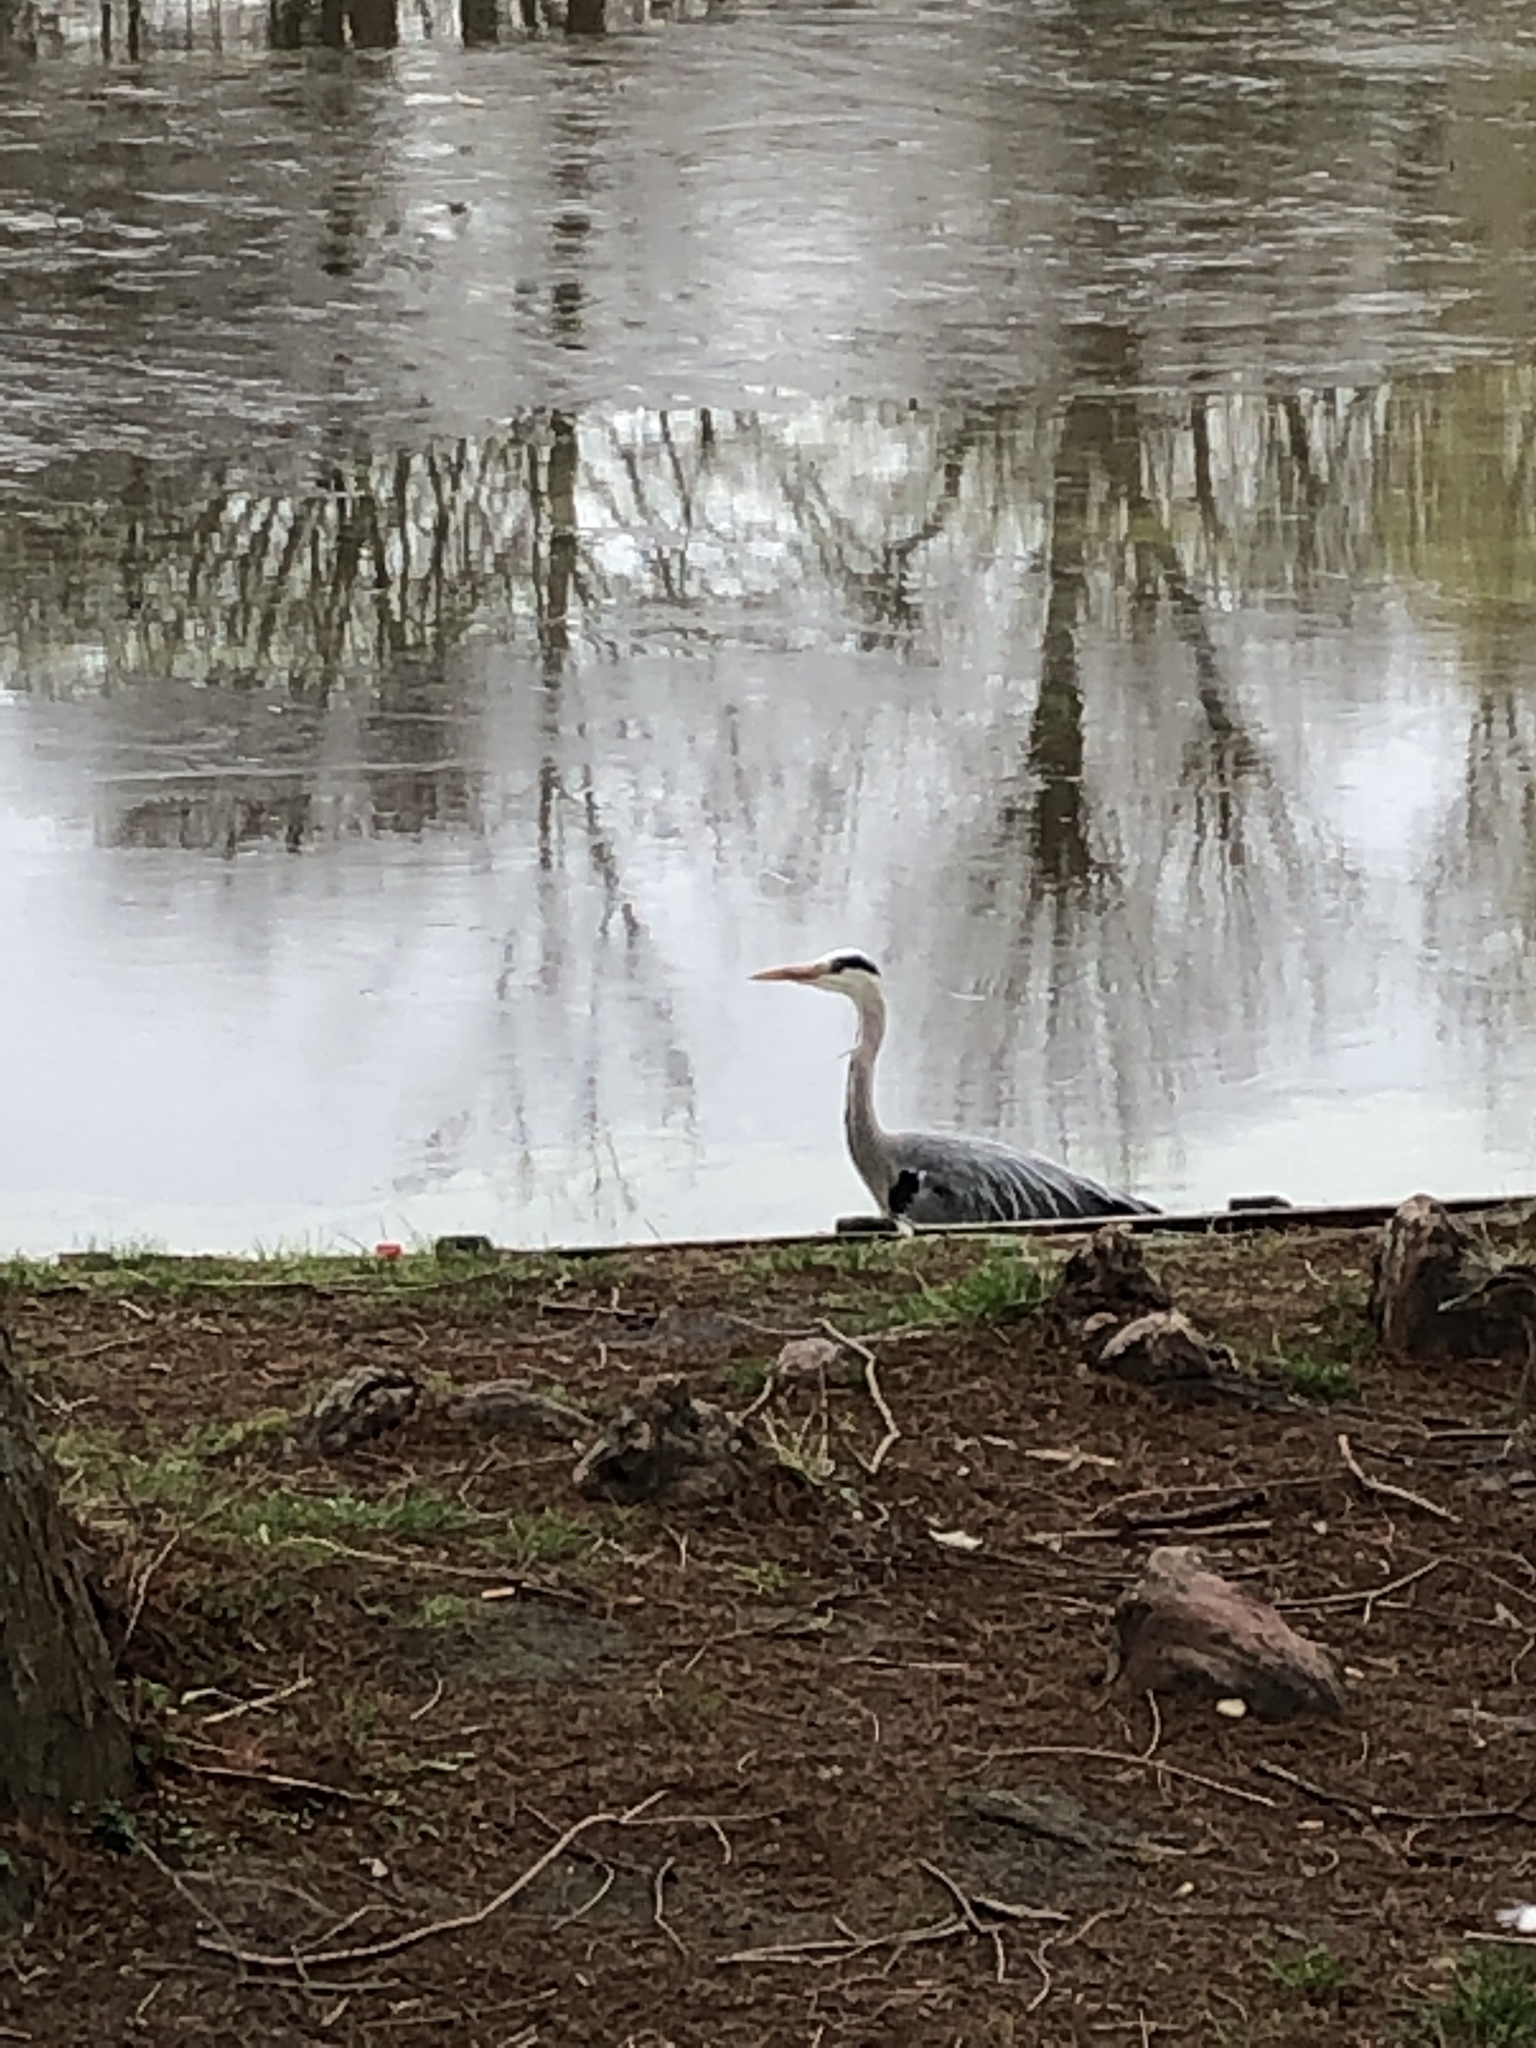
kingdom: Animalia
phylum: Chordata
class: Aves
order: Pelecaniformes
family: Ardeidae
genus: Ardea
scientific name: Ardea cinerea
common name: Grey heron
